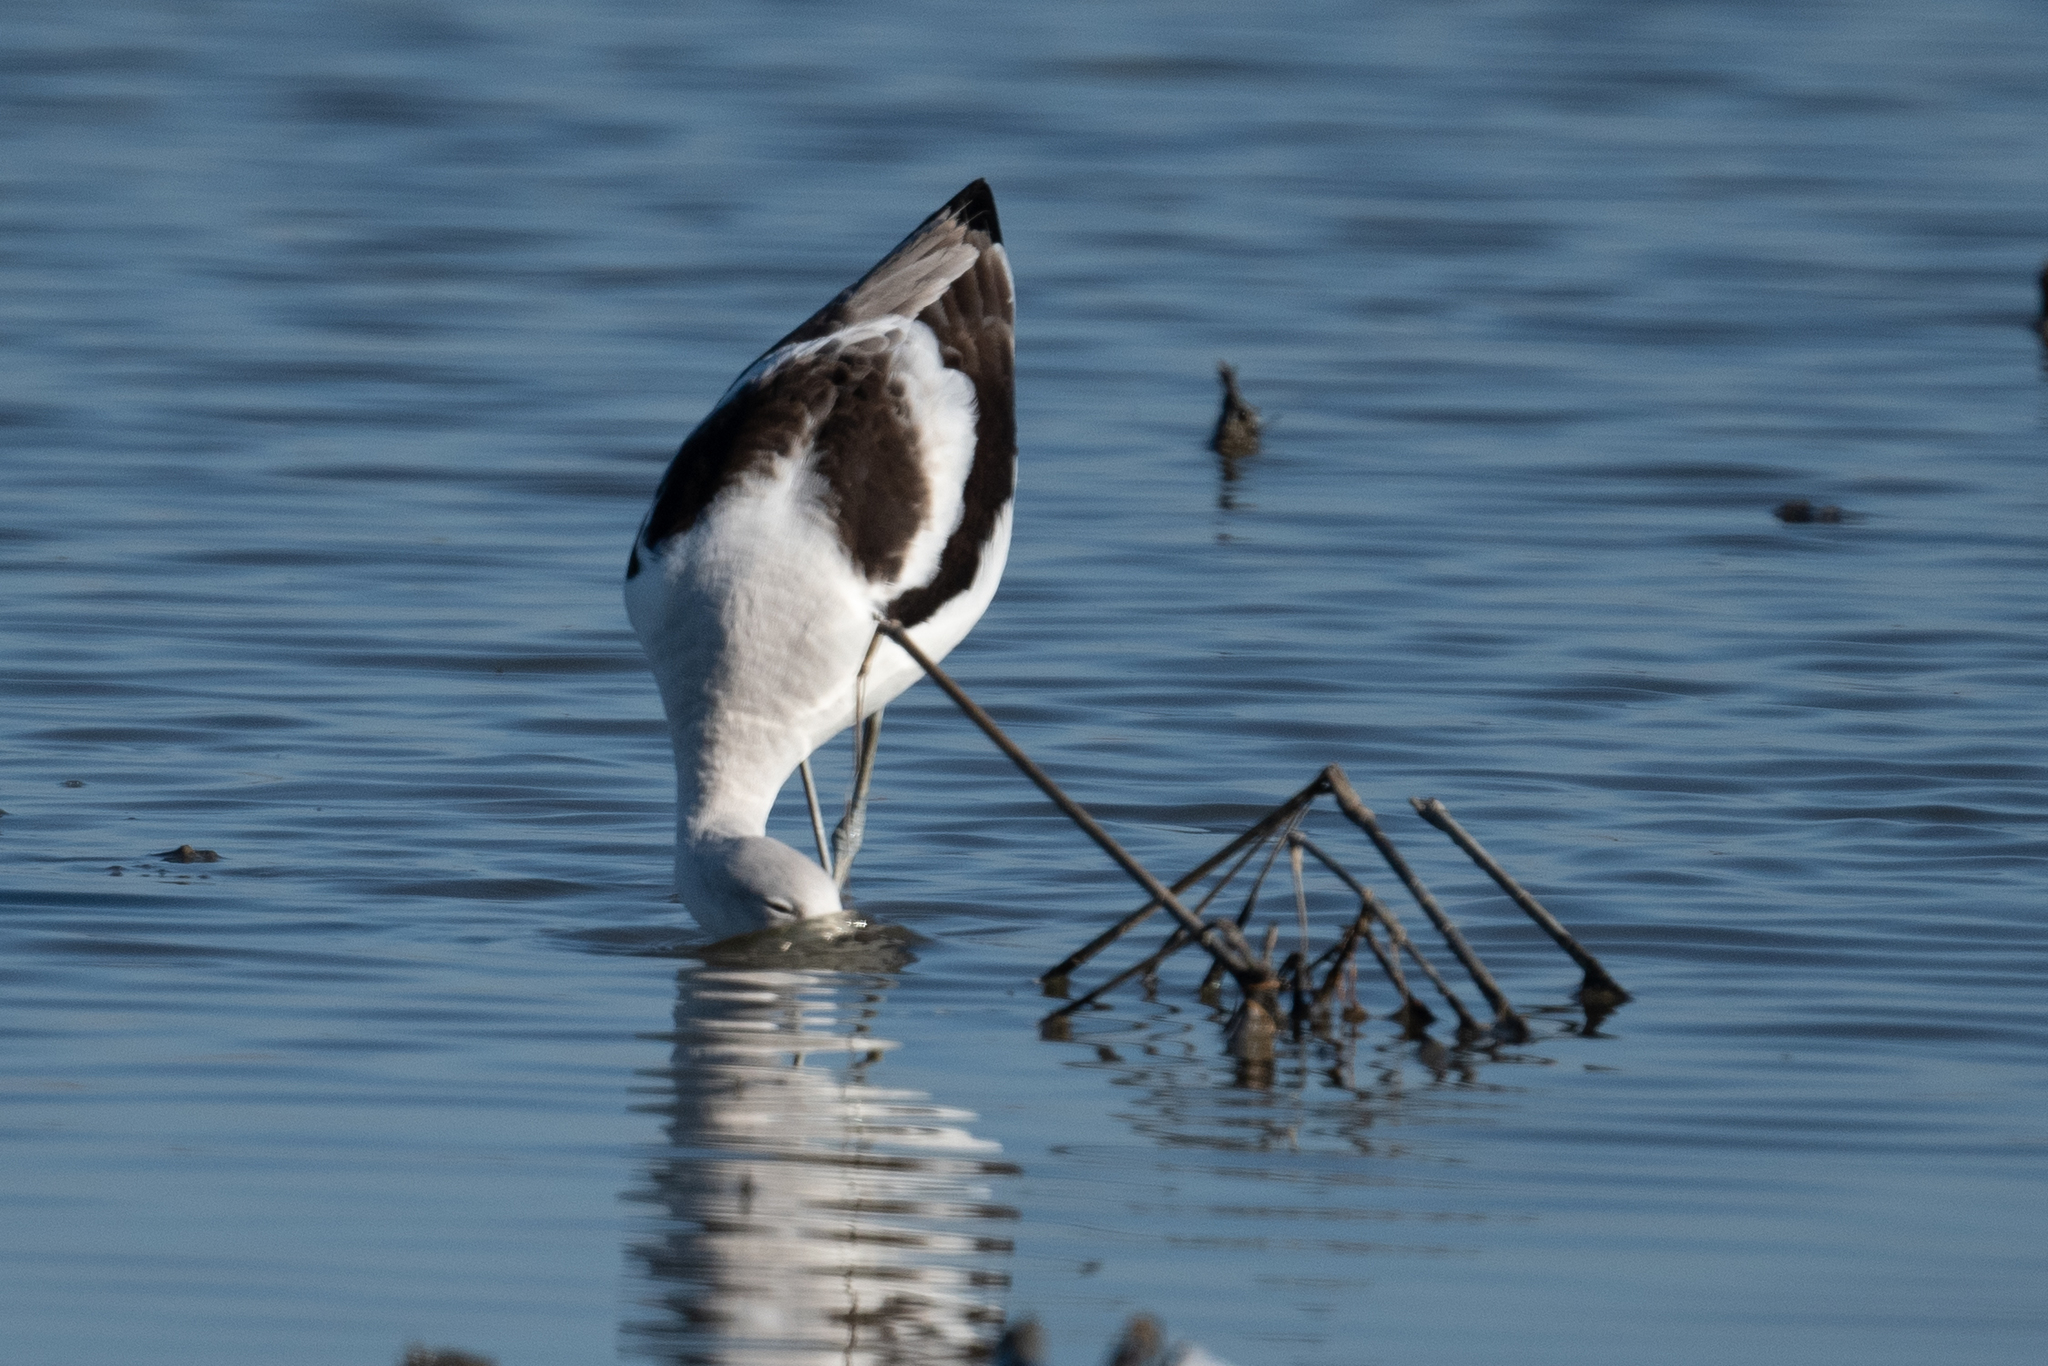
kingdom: Animalia
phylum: Chordata
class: Aves
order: Charadriiformes
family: Recurvirostridae
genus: Recurvirostra
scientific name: Recurvirostra americana
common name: American avocet
